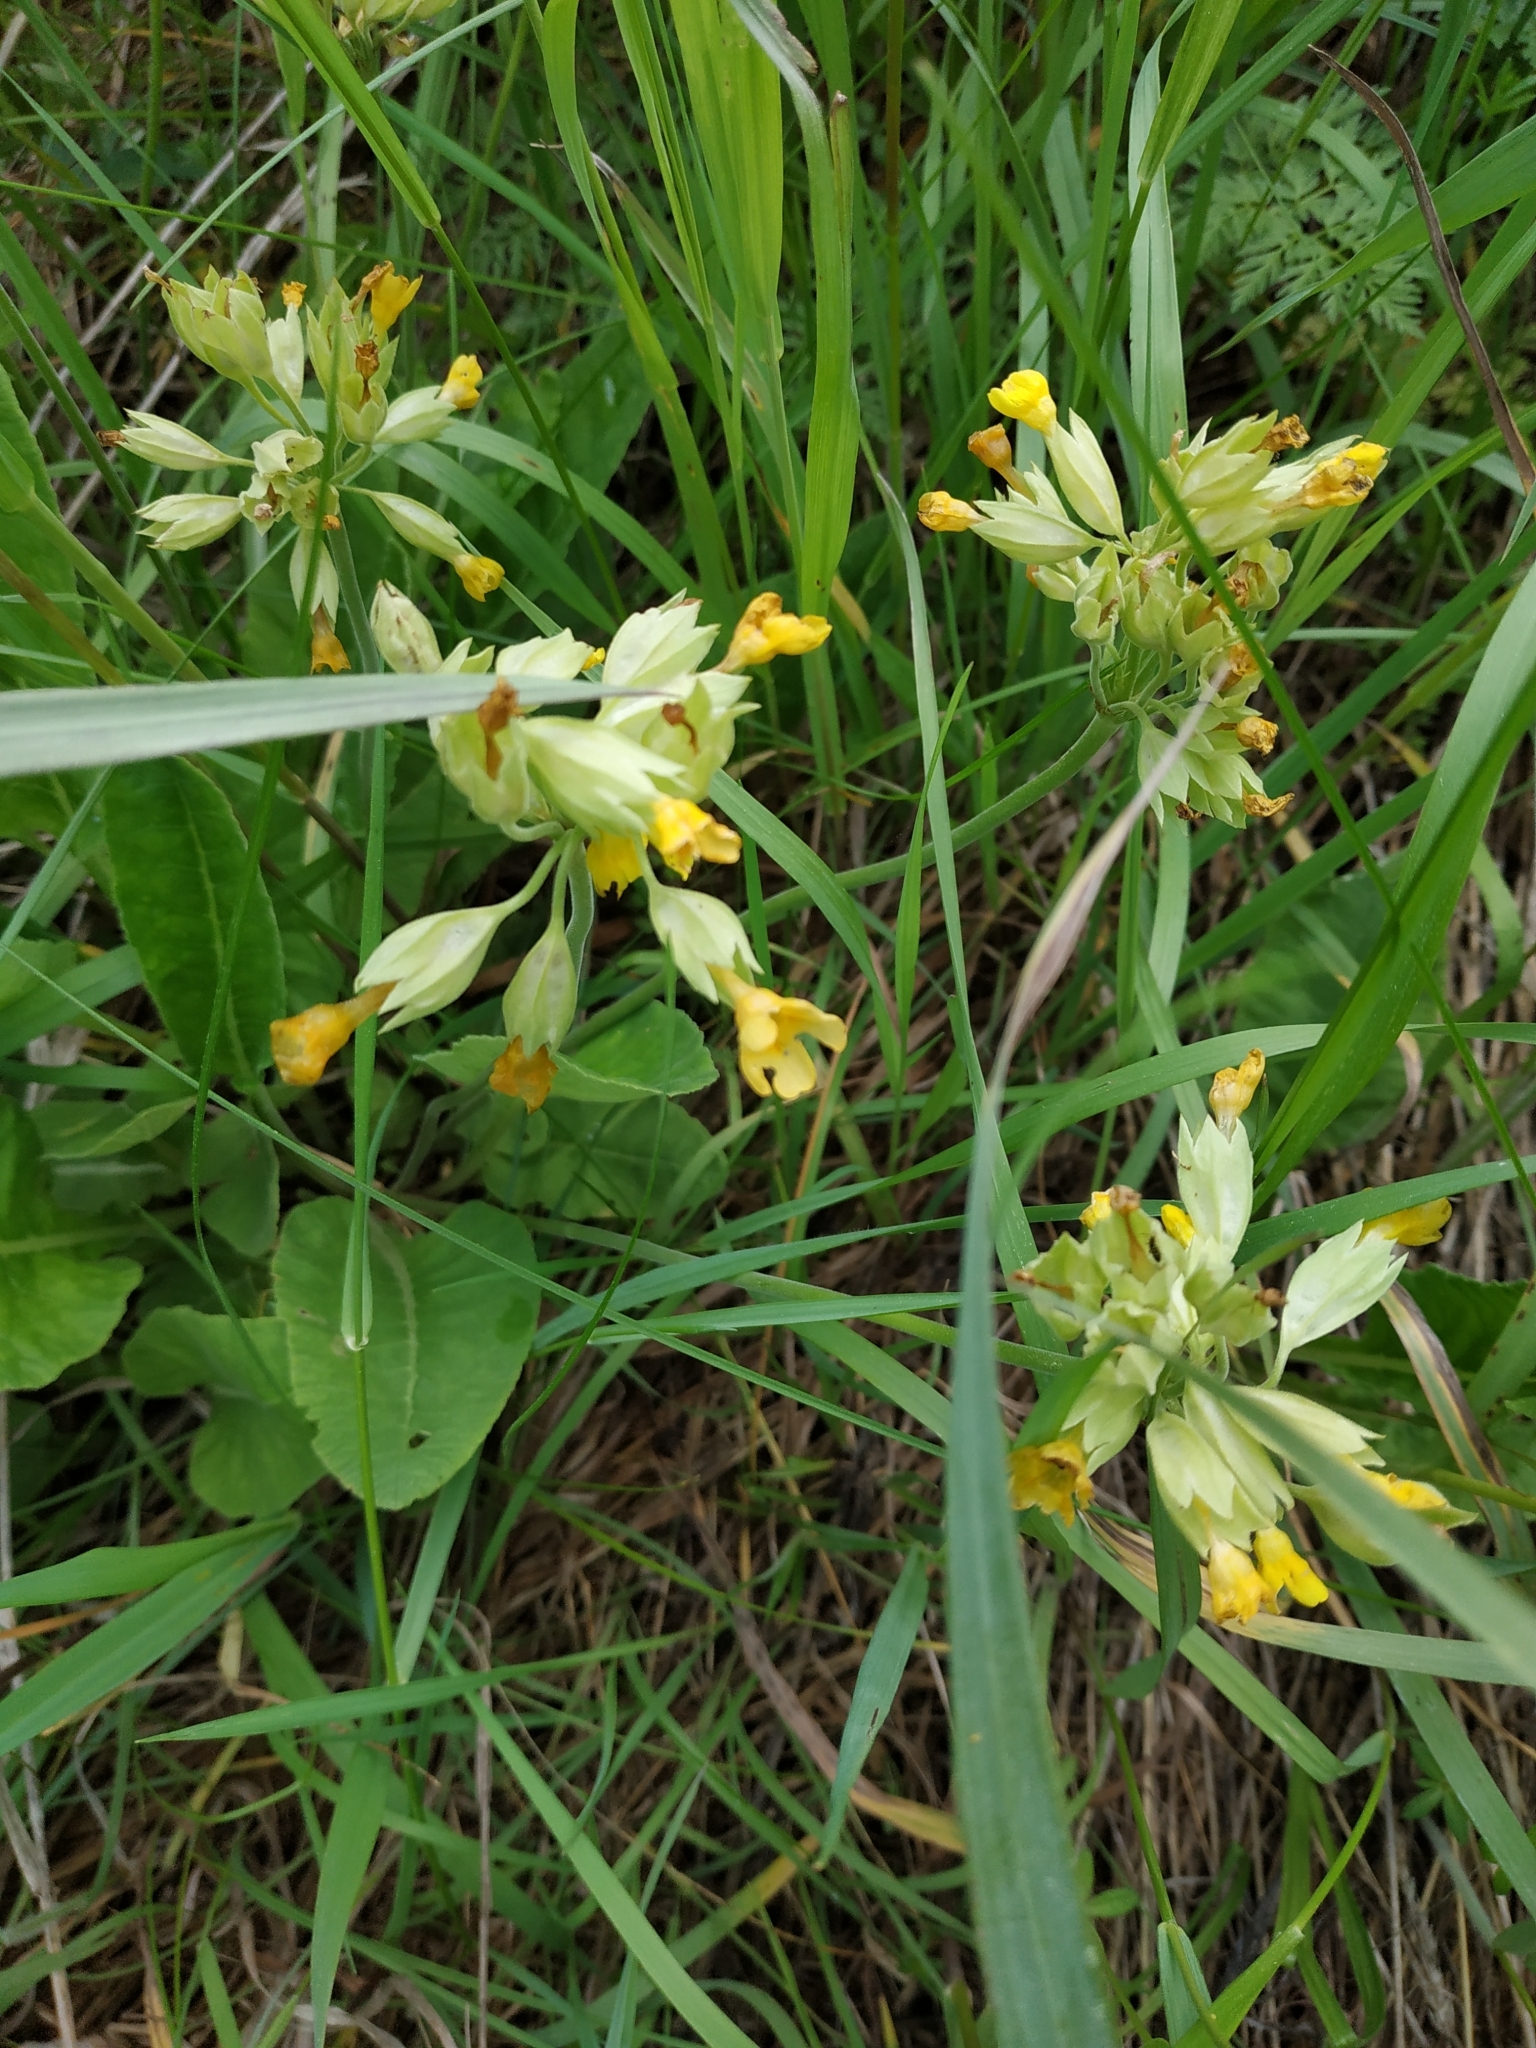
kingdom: Plantae
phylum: Tracheophyta
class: Magnoliopsida
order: Ericales
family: Primulaceae
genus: Primula
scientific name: Primula veris
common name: Cowslip
